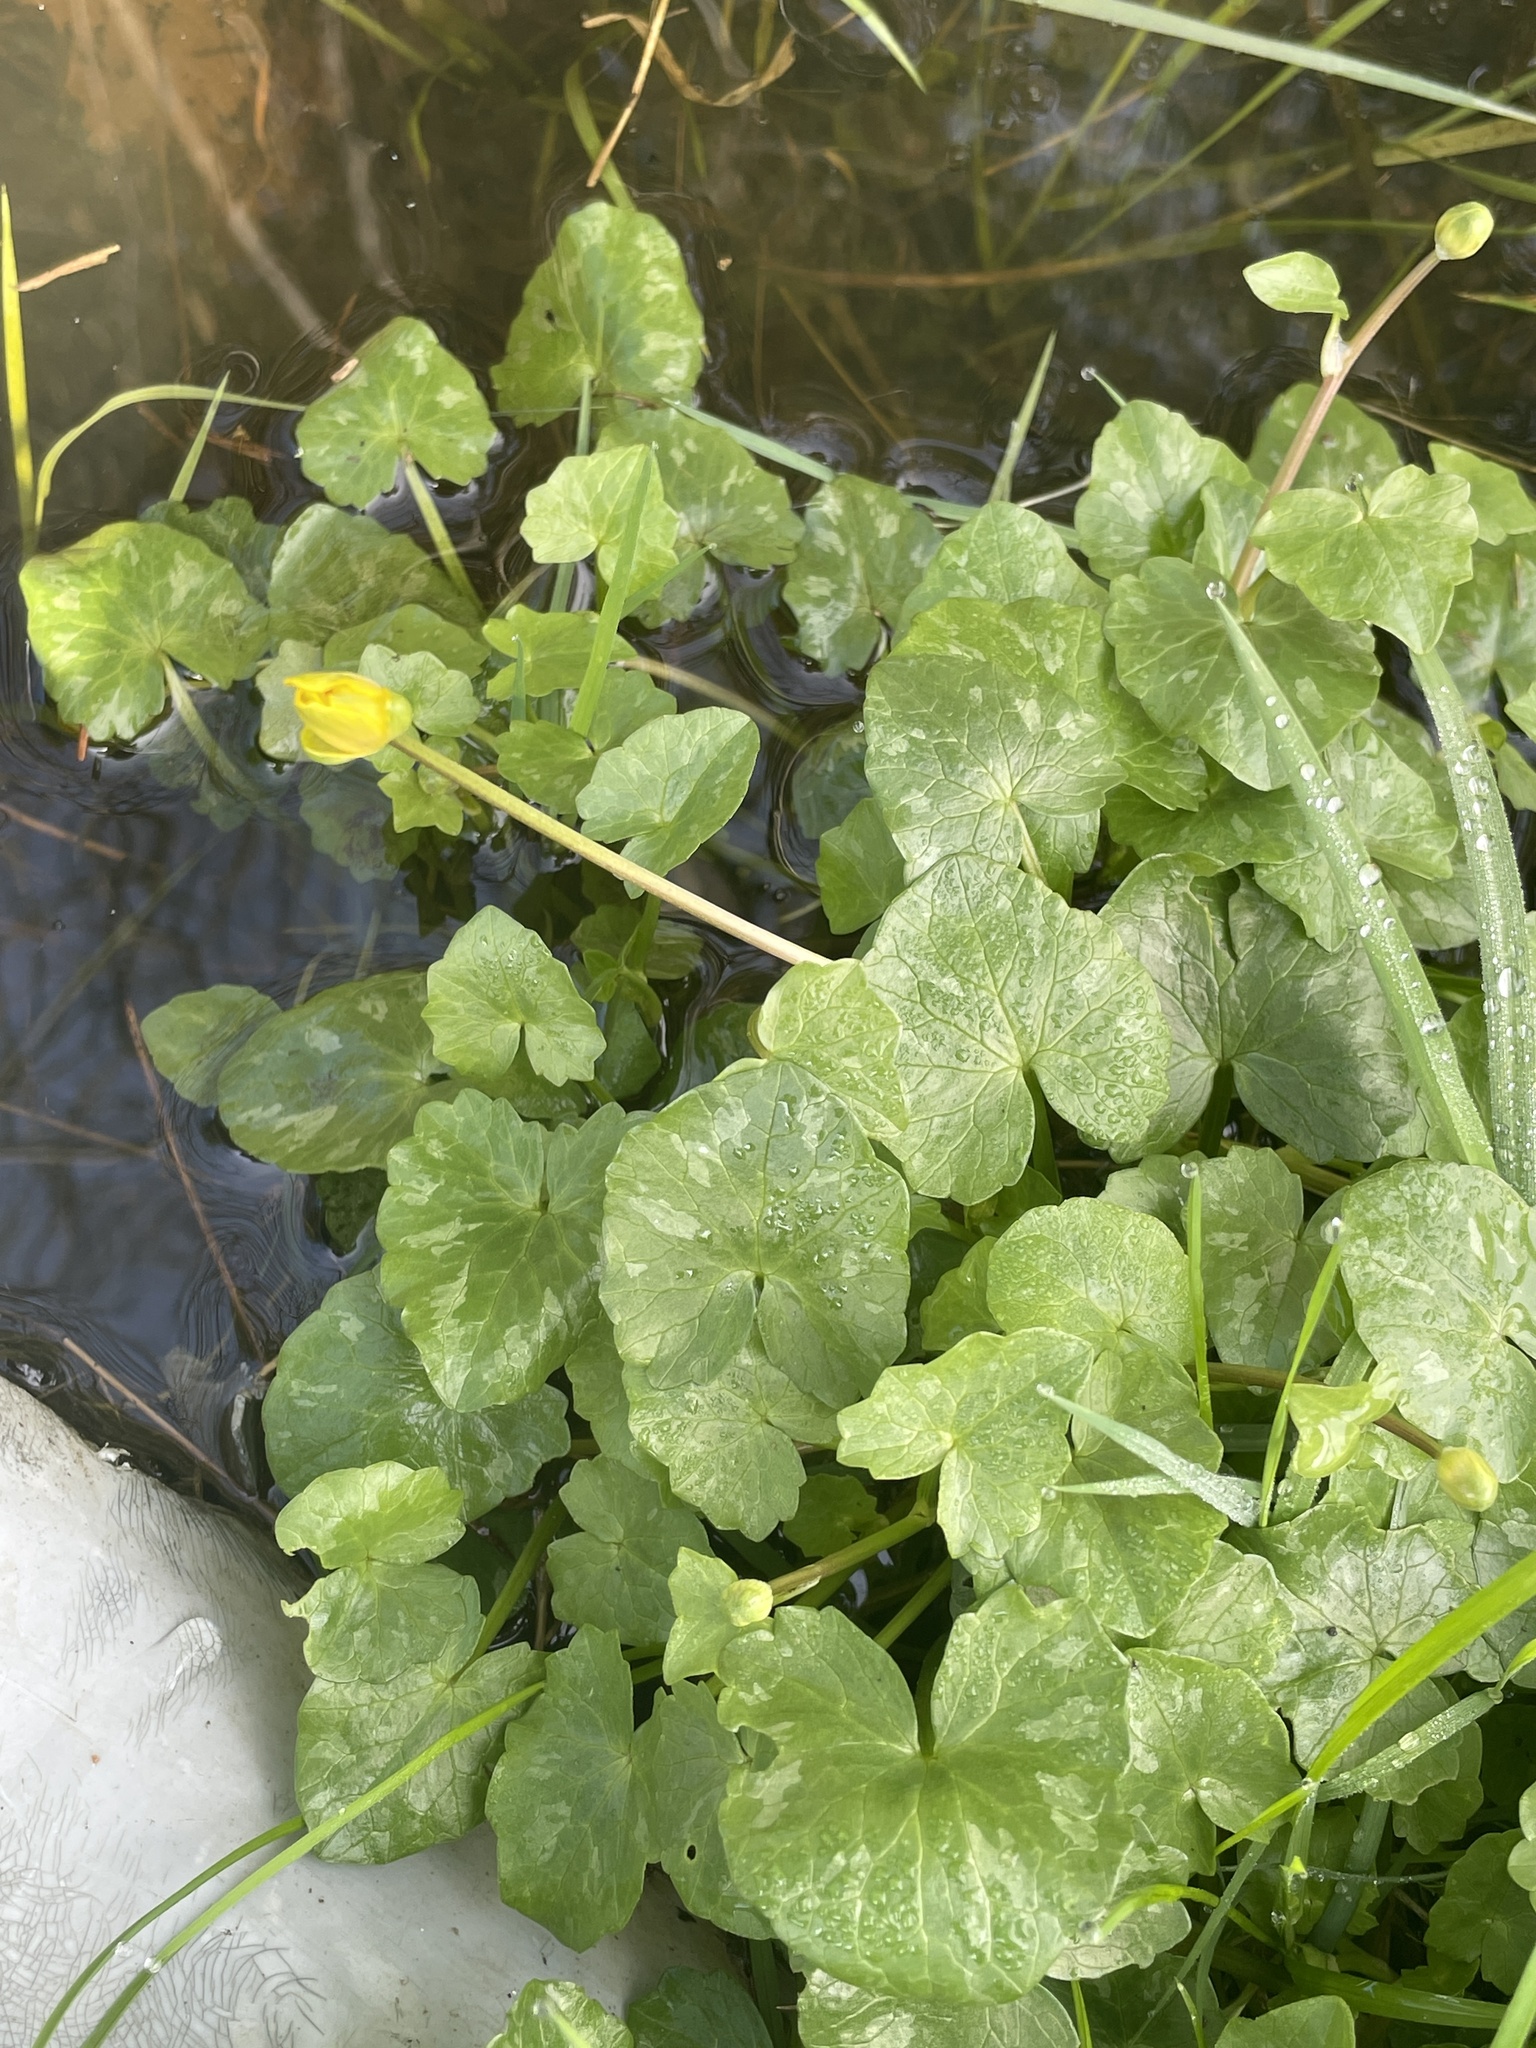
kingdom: Plantae
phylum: Tracheophyta
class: Magnoliopsida
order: Ranunculales
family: Ranunculaceae
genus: Ficaria
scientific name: Ficaria verna
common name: Lesser celandine
